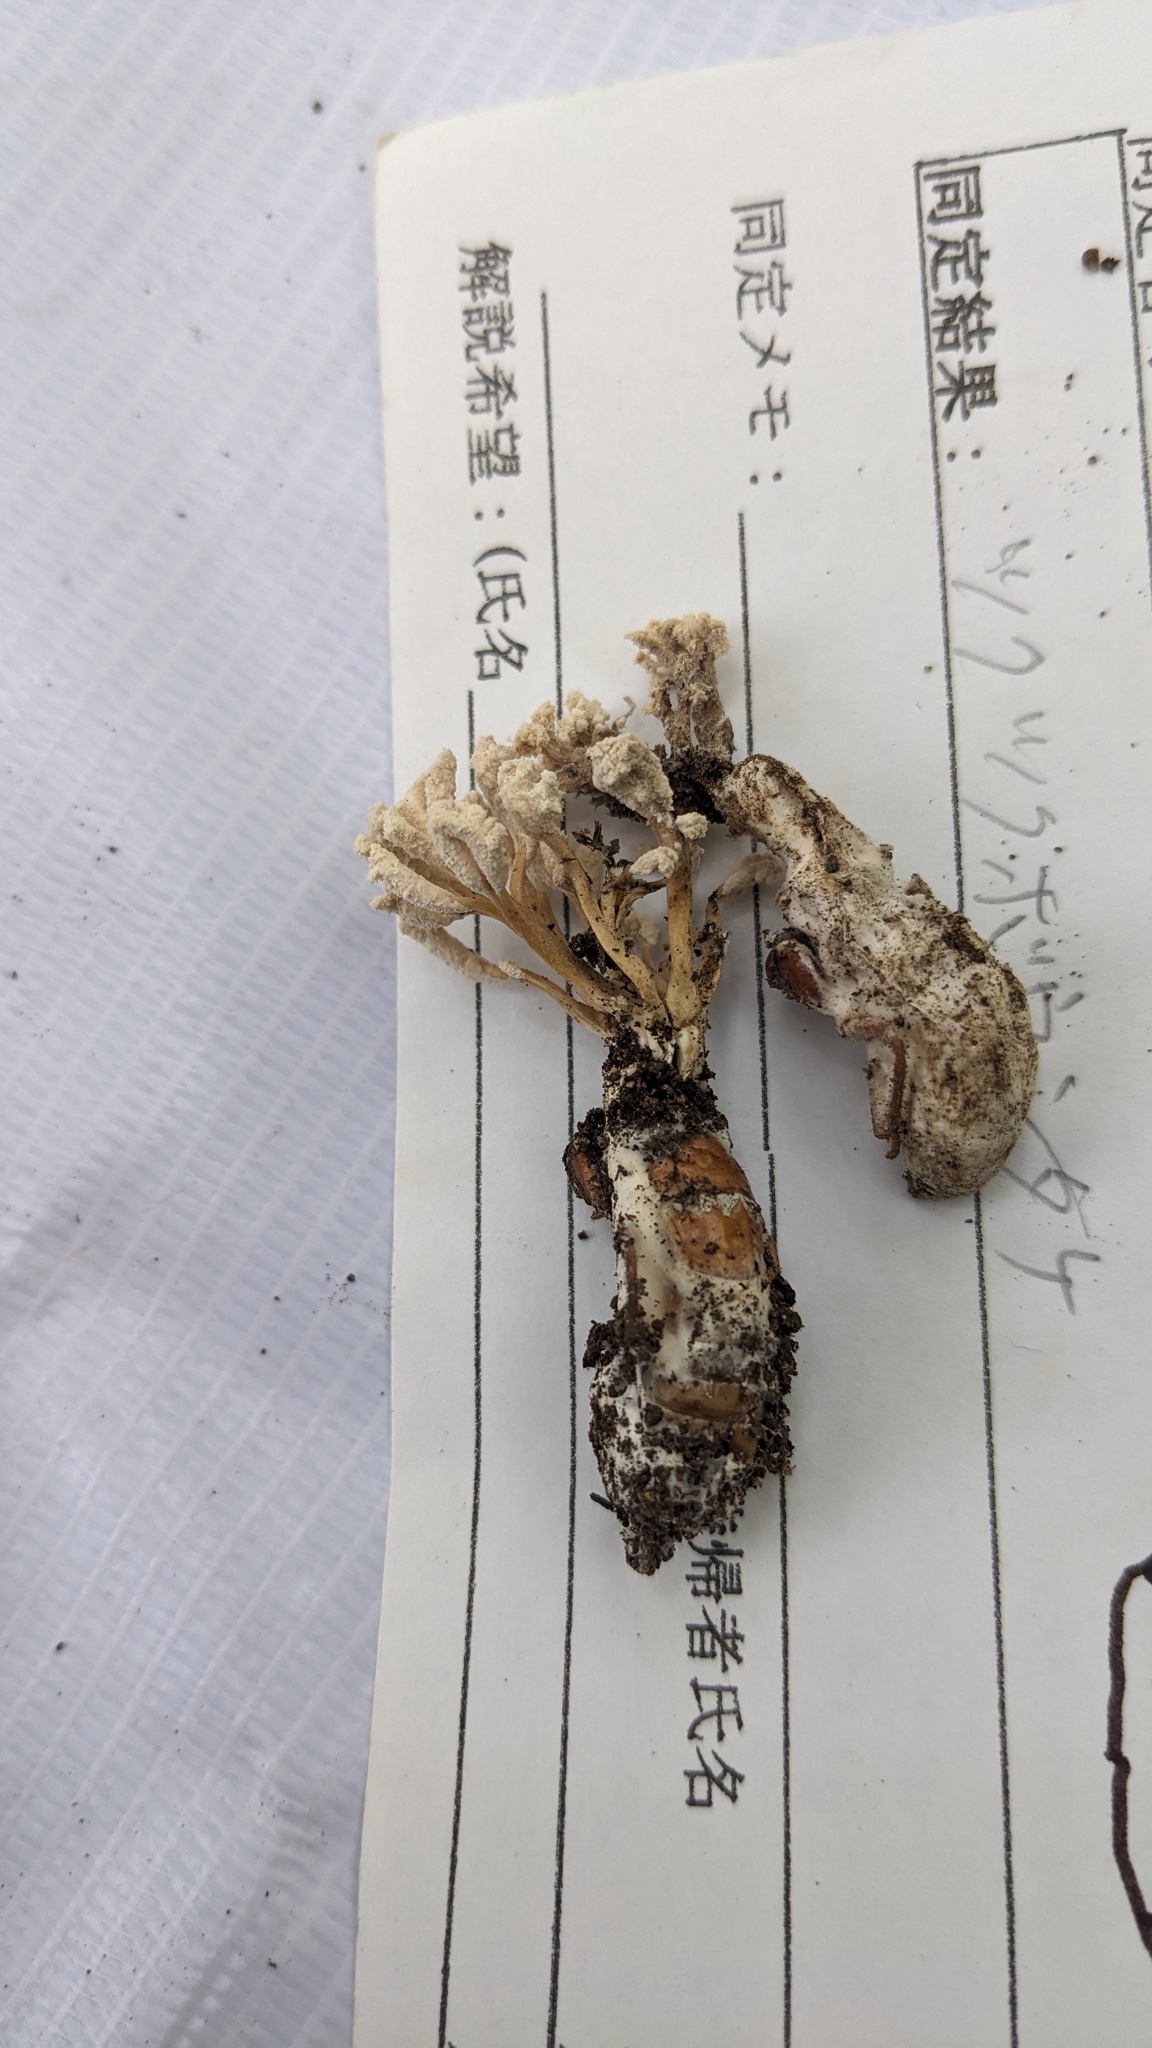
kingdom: Fungi
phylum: Ascomycota
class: Sordariomycetes
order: Hypocreales
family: Cordycipitaceae
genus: Isaria
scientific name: Isaria cicadae
